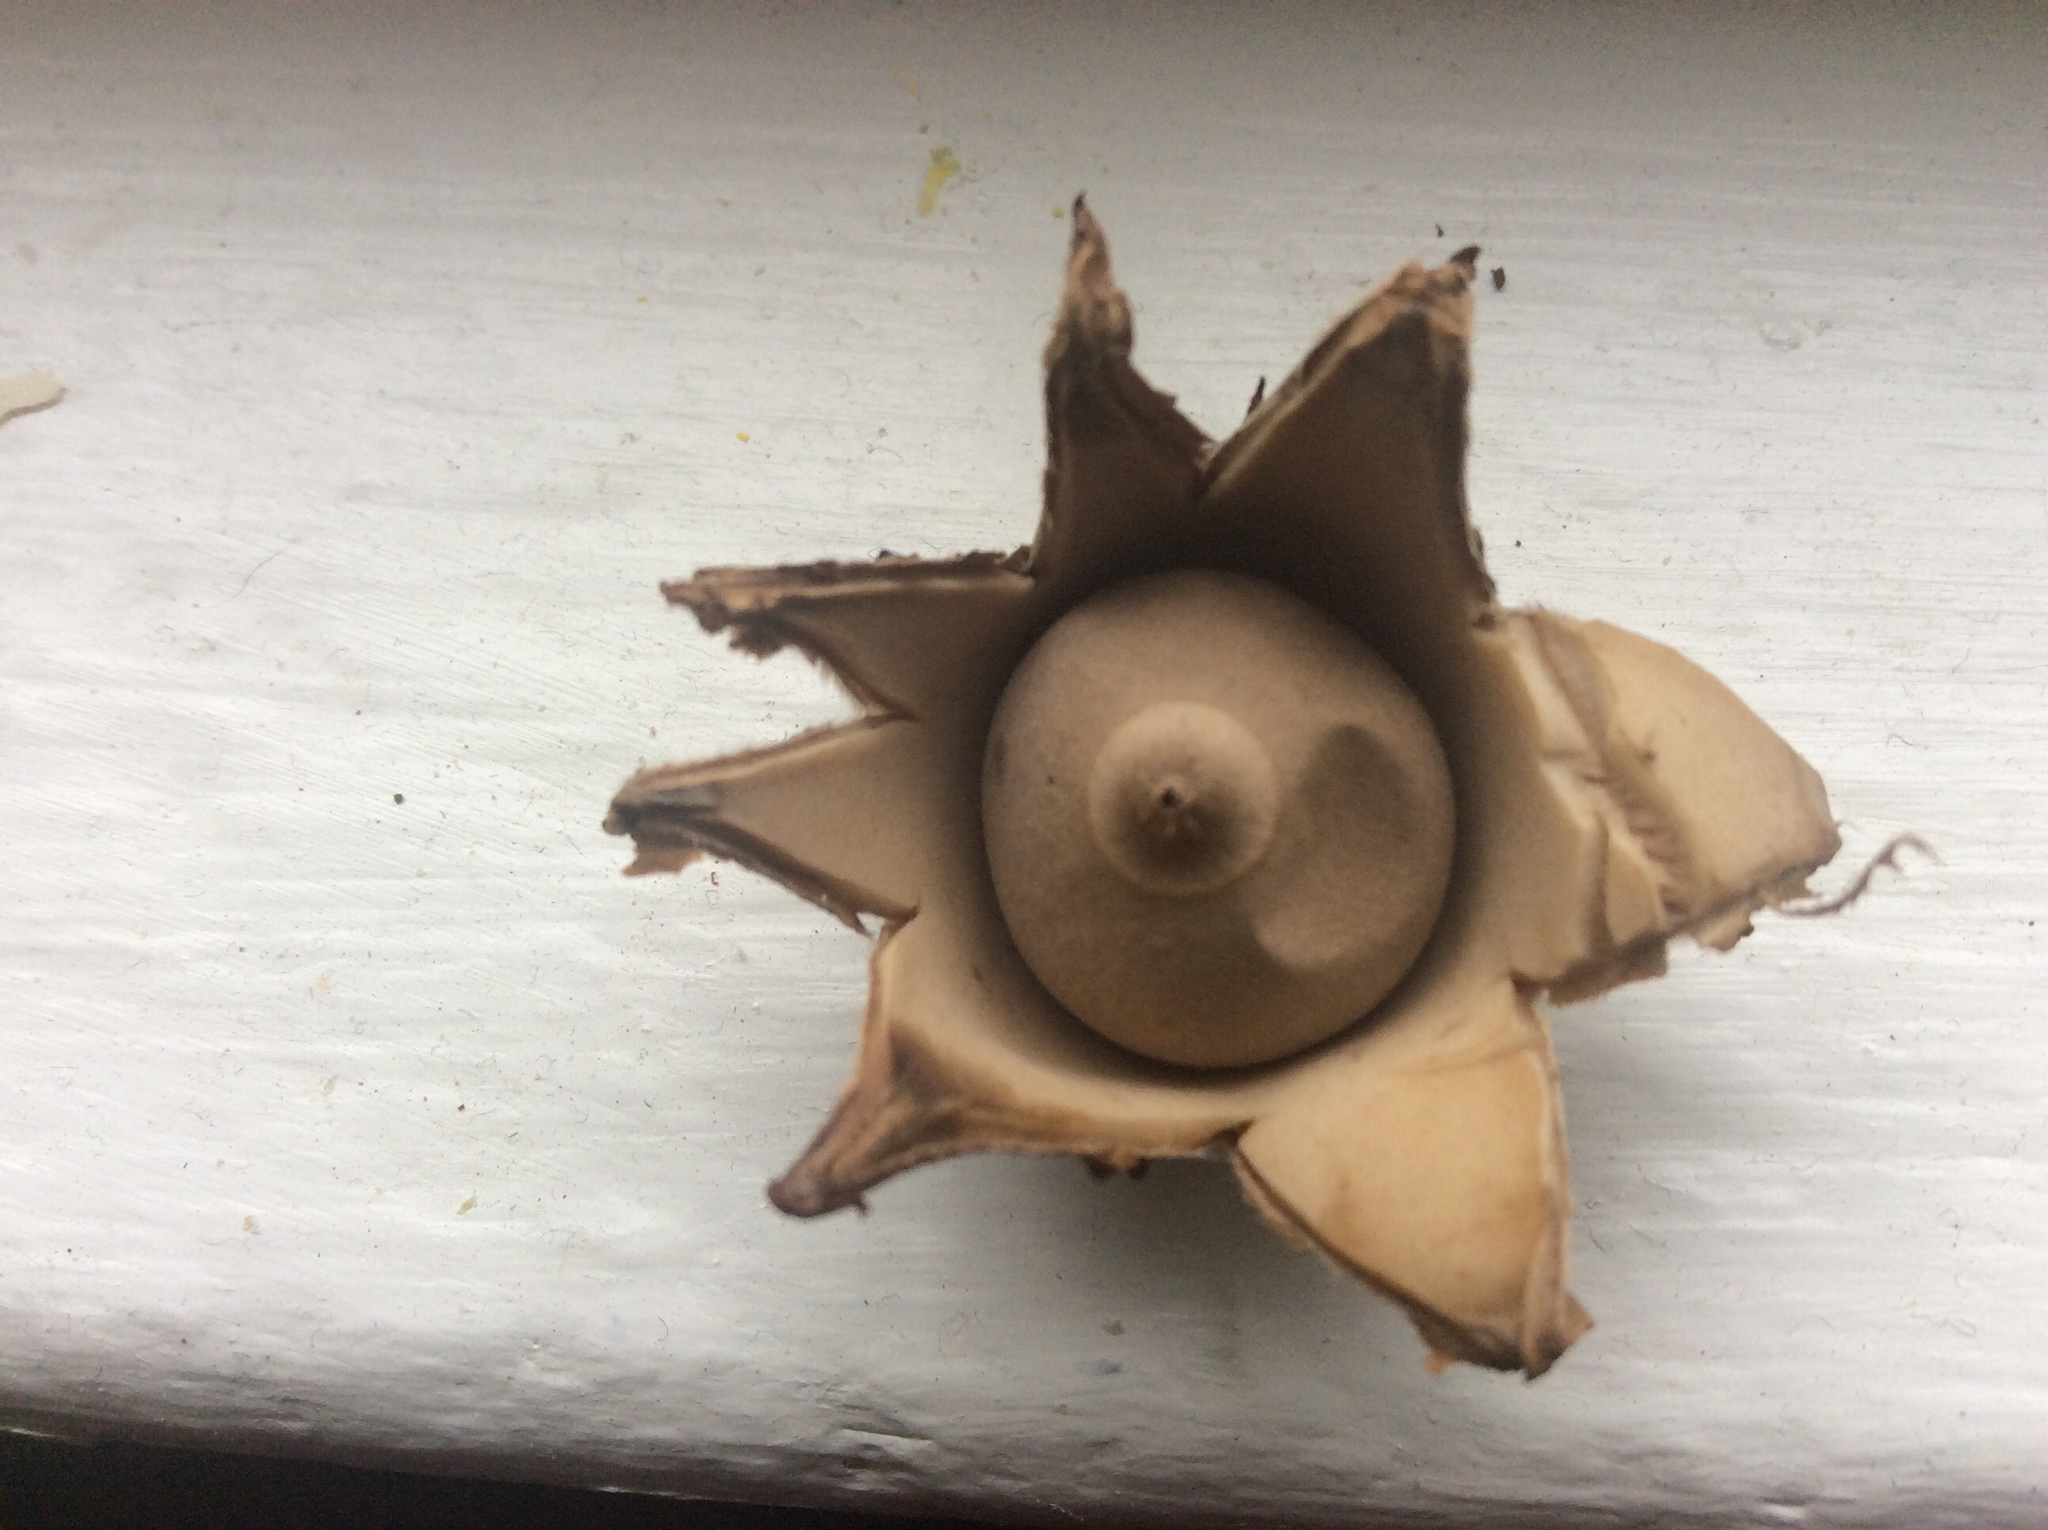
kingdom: Fungi
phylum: Basidiomycota
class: Agaricomycetes
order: Geastrales
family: Geastraceae
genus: Geastrum
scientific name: Geastrum saccatum
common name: Rounded earthstar
